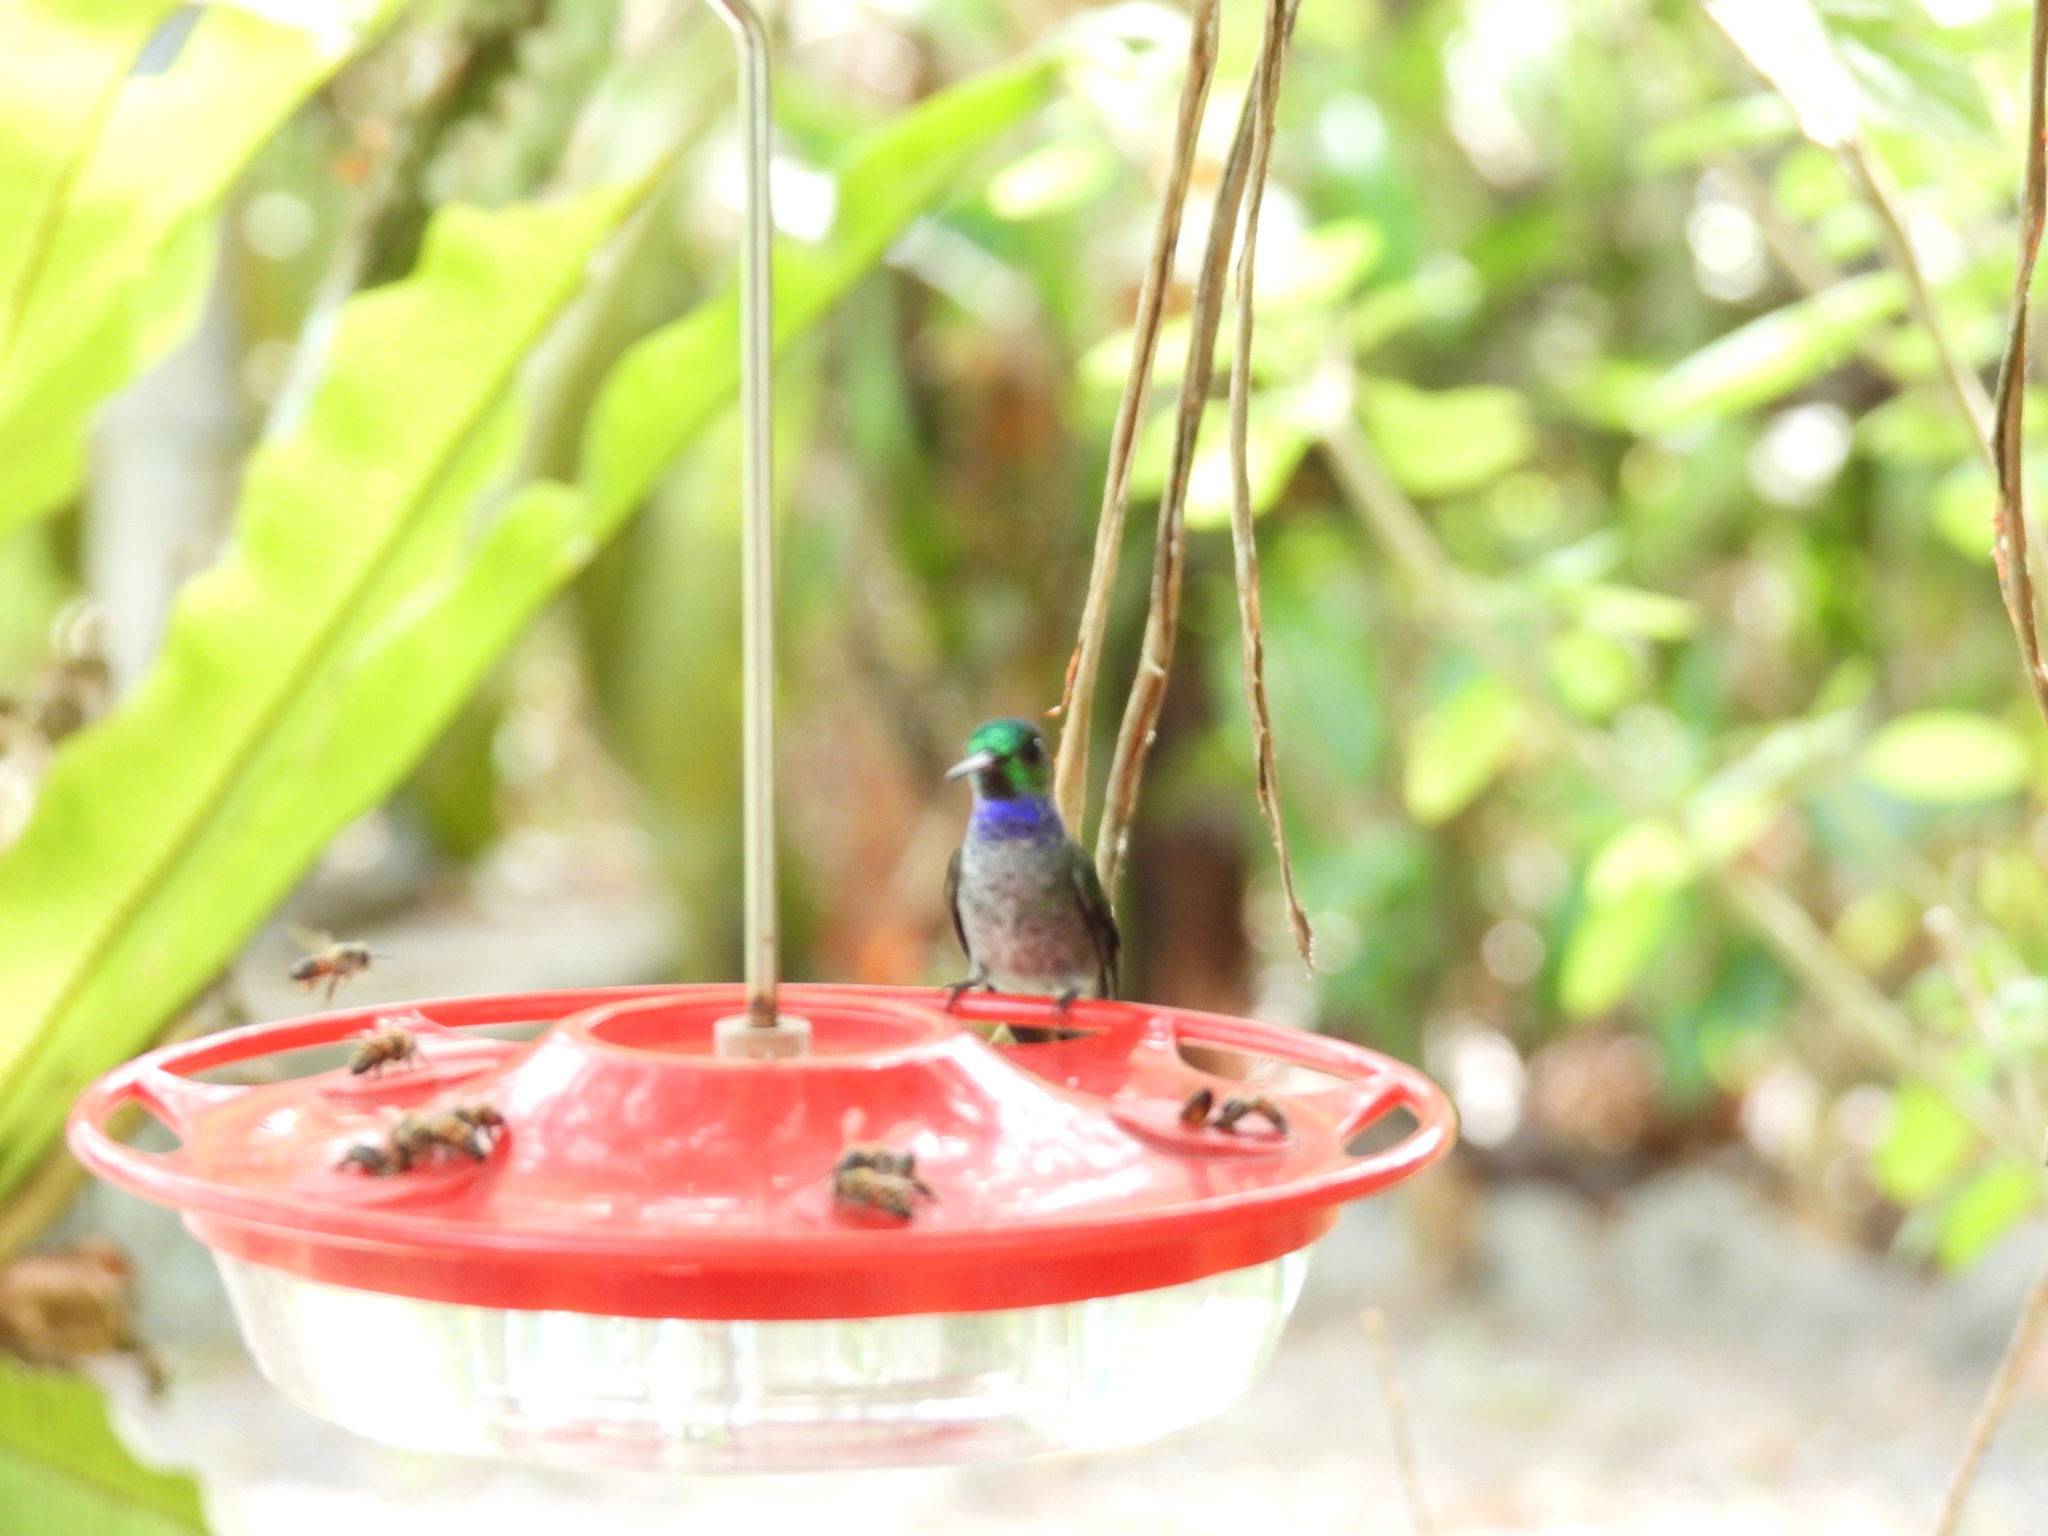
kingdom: Animalia
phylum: Chordata
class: Aves
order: Apodiformes
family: Trochilidae
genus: Polyerata
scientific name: Polyerata amabilis
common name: Blue-chested hummingbird
